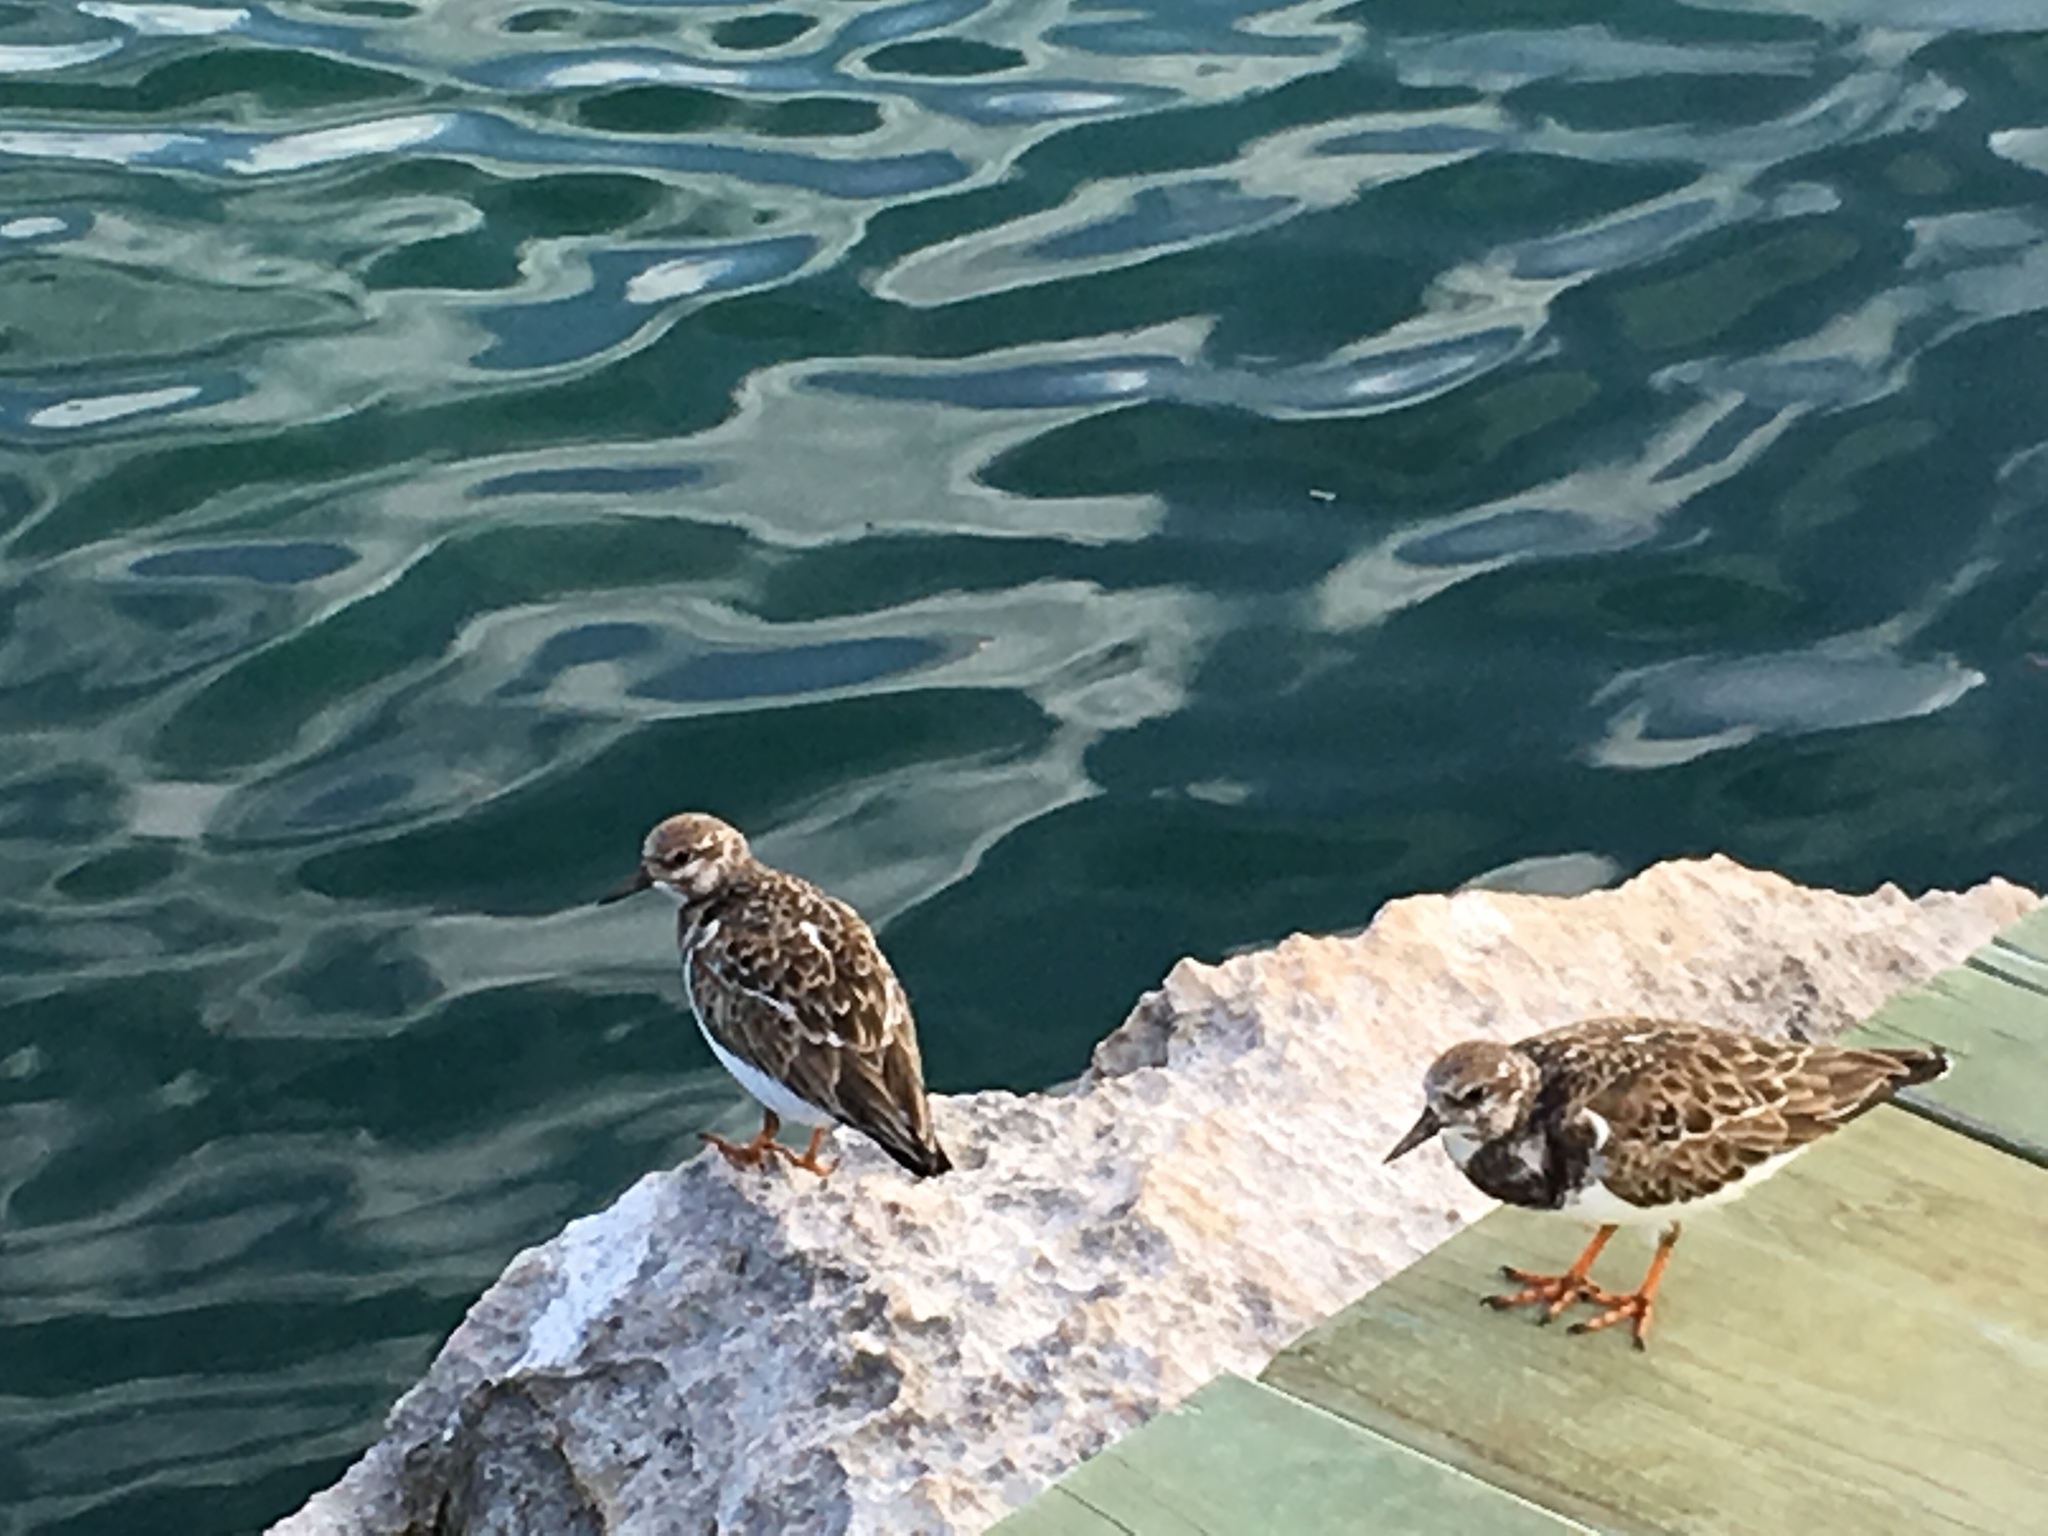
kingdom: Animalia
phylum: Chordata
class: Aves
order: Charadriiformes
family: Scolopacidae
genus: Arenaria
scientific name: Arenaria interpres
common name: Ruddy turnstone
